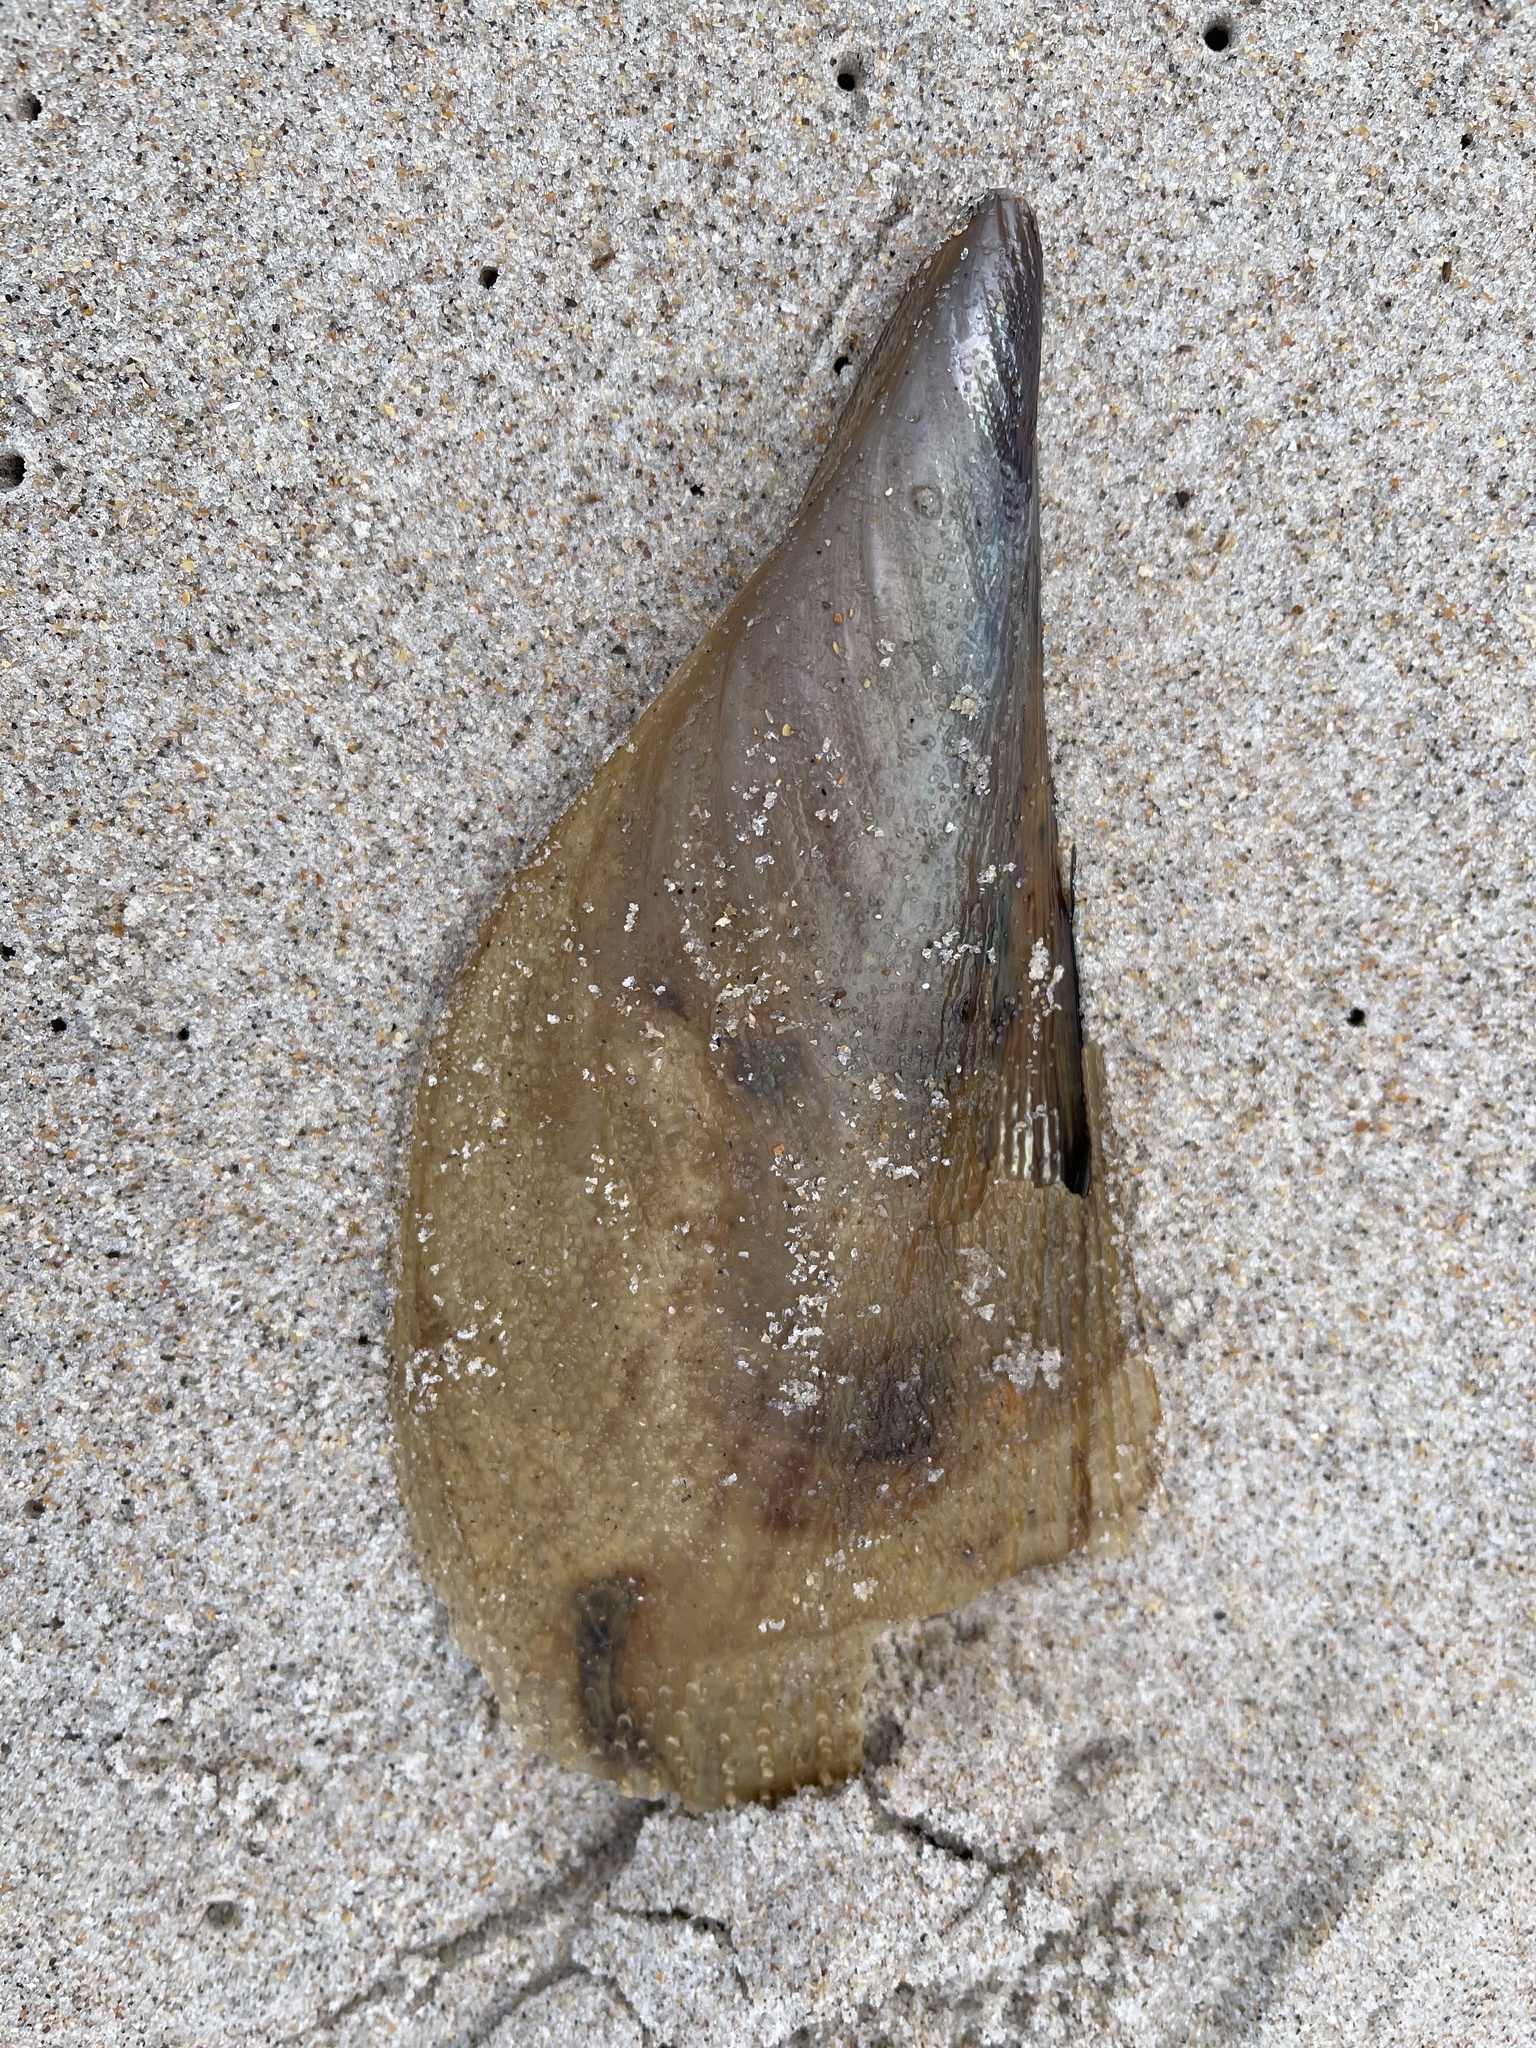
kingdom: Animalia
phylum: Mollusca
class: Bivalvia
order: Ostreida
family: Pinnidae
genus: Atrina
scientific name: Atrina serrata
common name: Saw-toothed penshell
